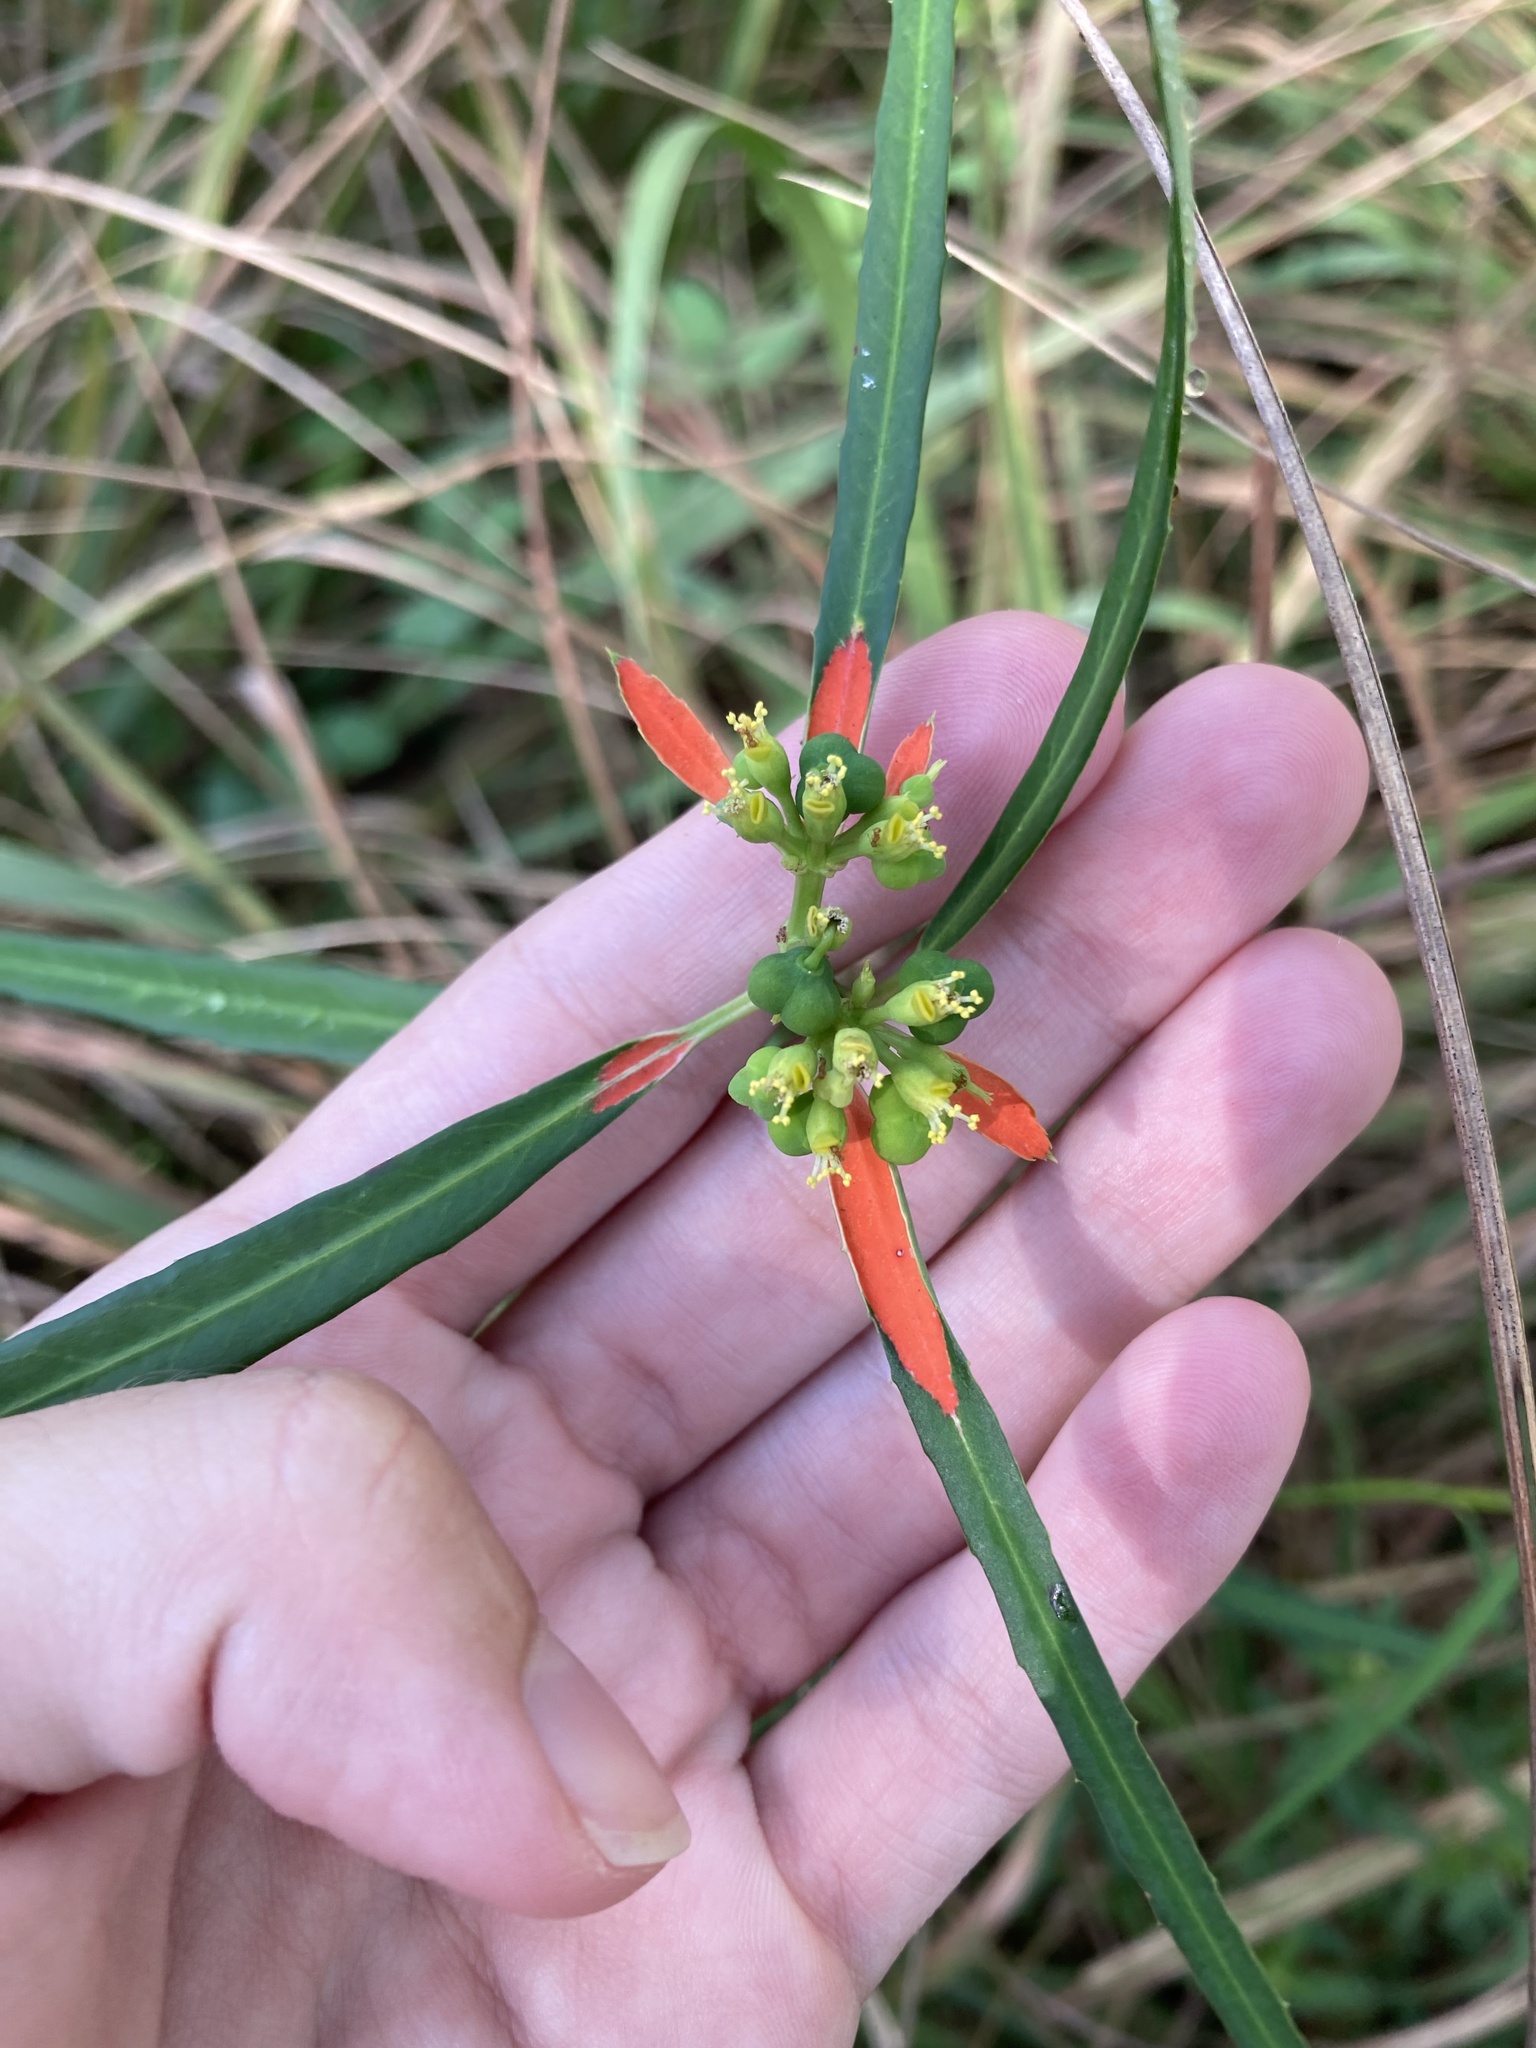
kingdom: Plantae
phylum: Tracheophyta
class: Magnoliopsida
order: Malpighiales
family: Euphorbiaceae
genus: Euphorbia
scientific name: Euphorbia heterophylla
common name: Mexican fireplant
